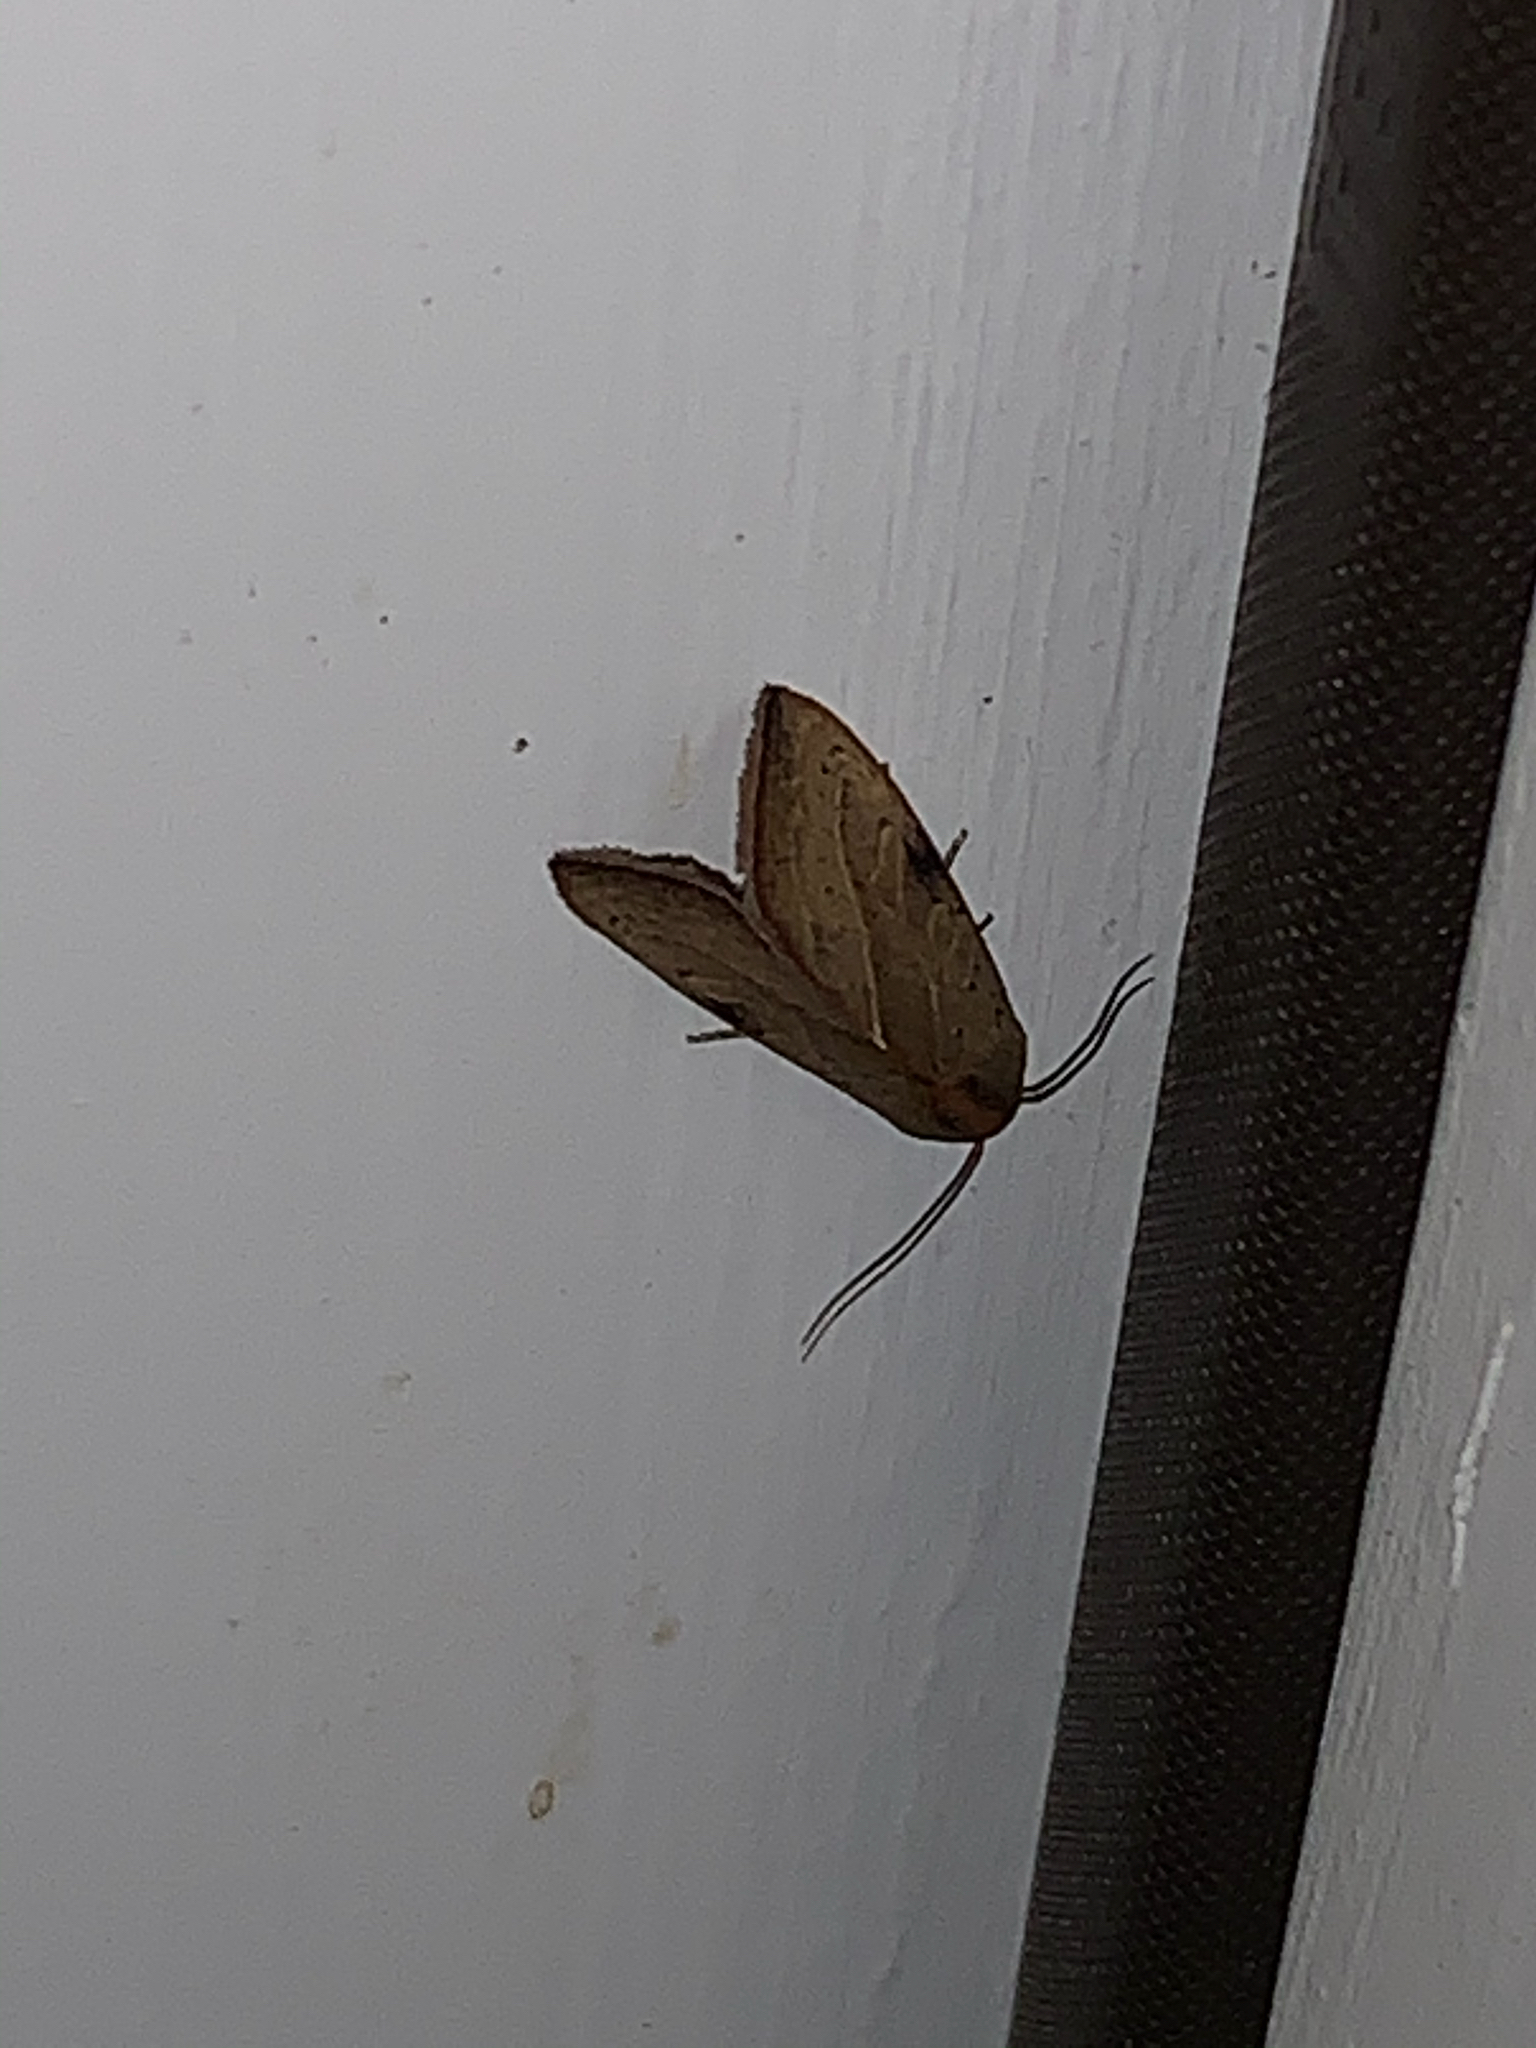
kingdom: Animalia
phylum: Arthropoda
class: Insecta
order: Lepidoptera
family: Noctuidae
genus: Galgula
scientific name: Galgula partita
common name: Wedgeling
